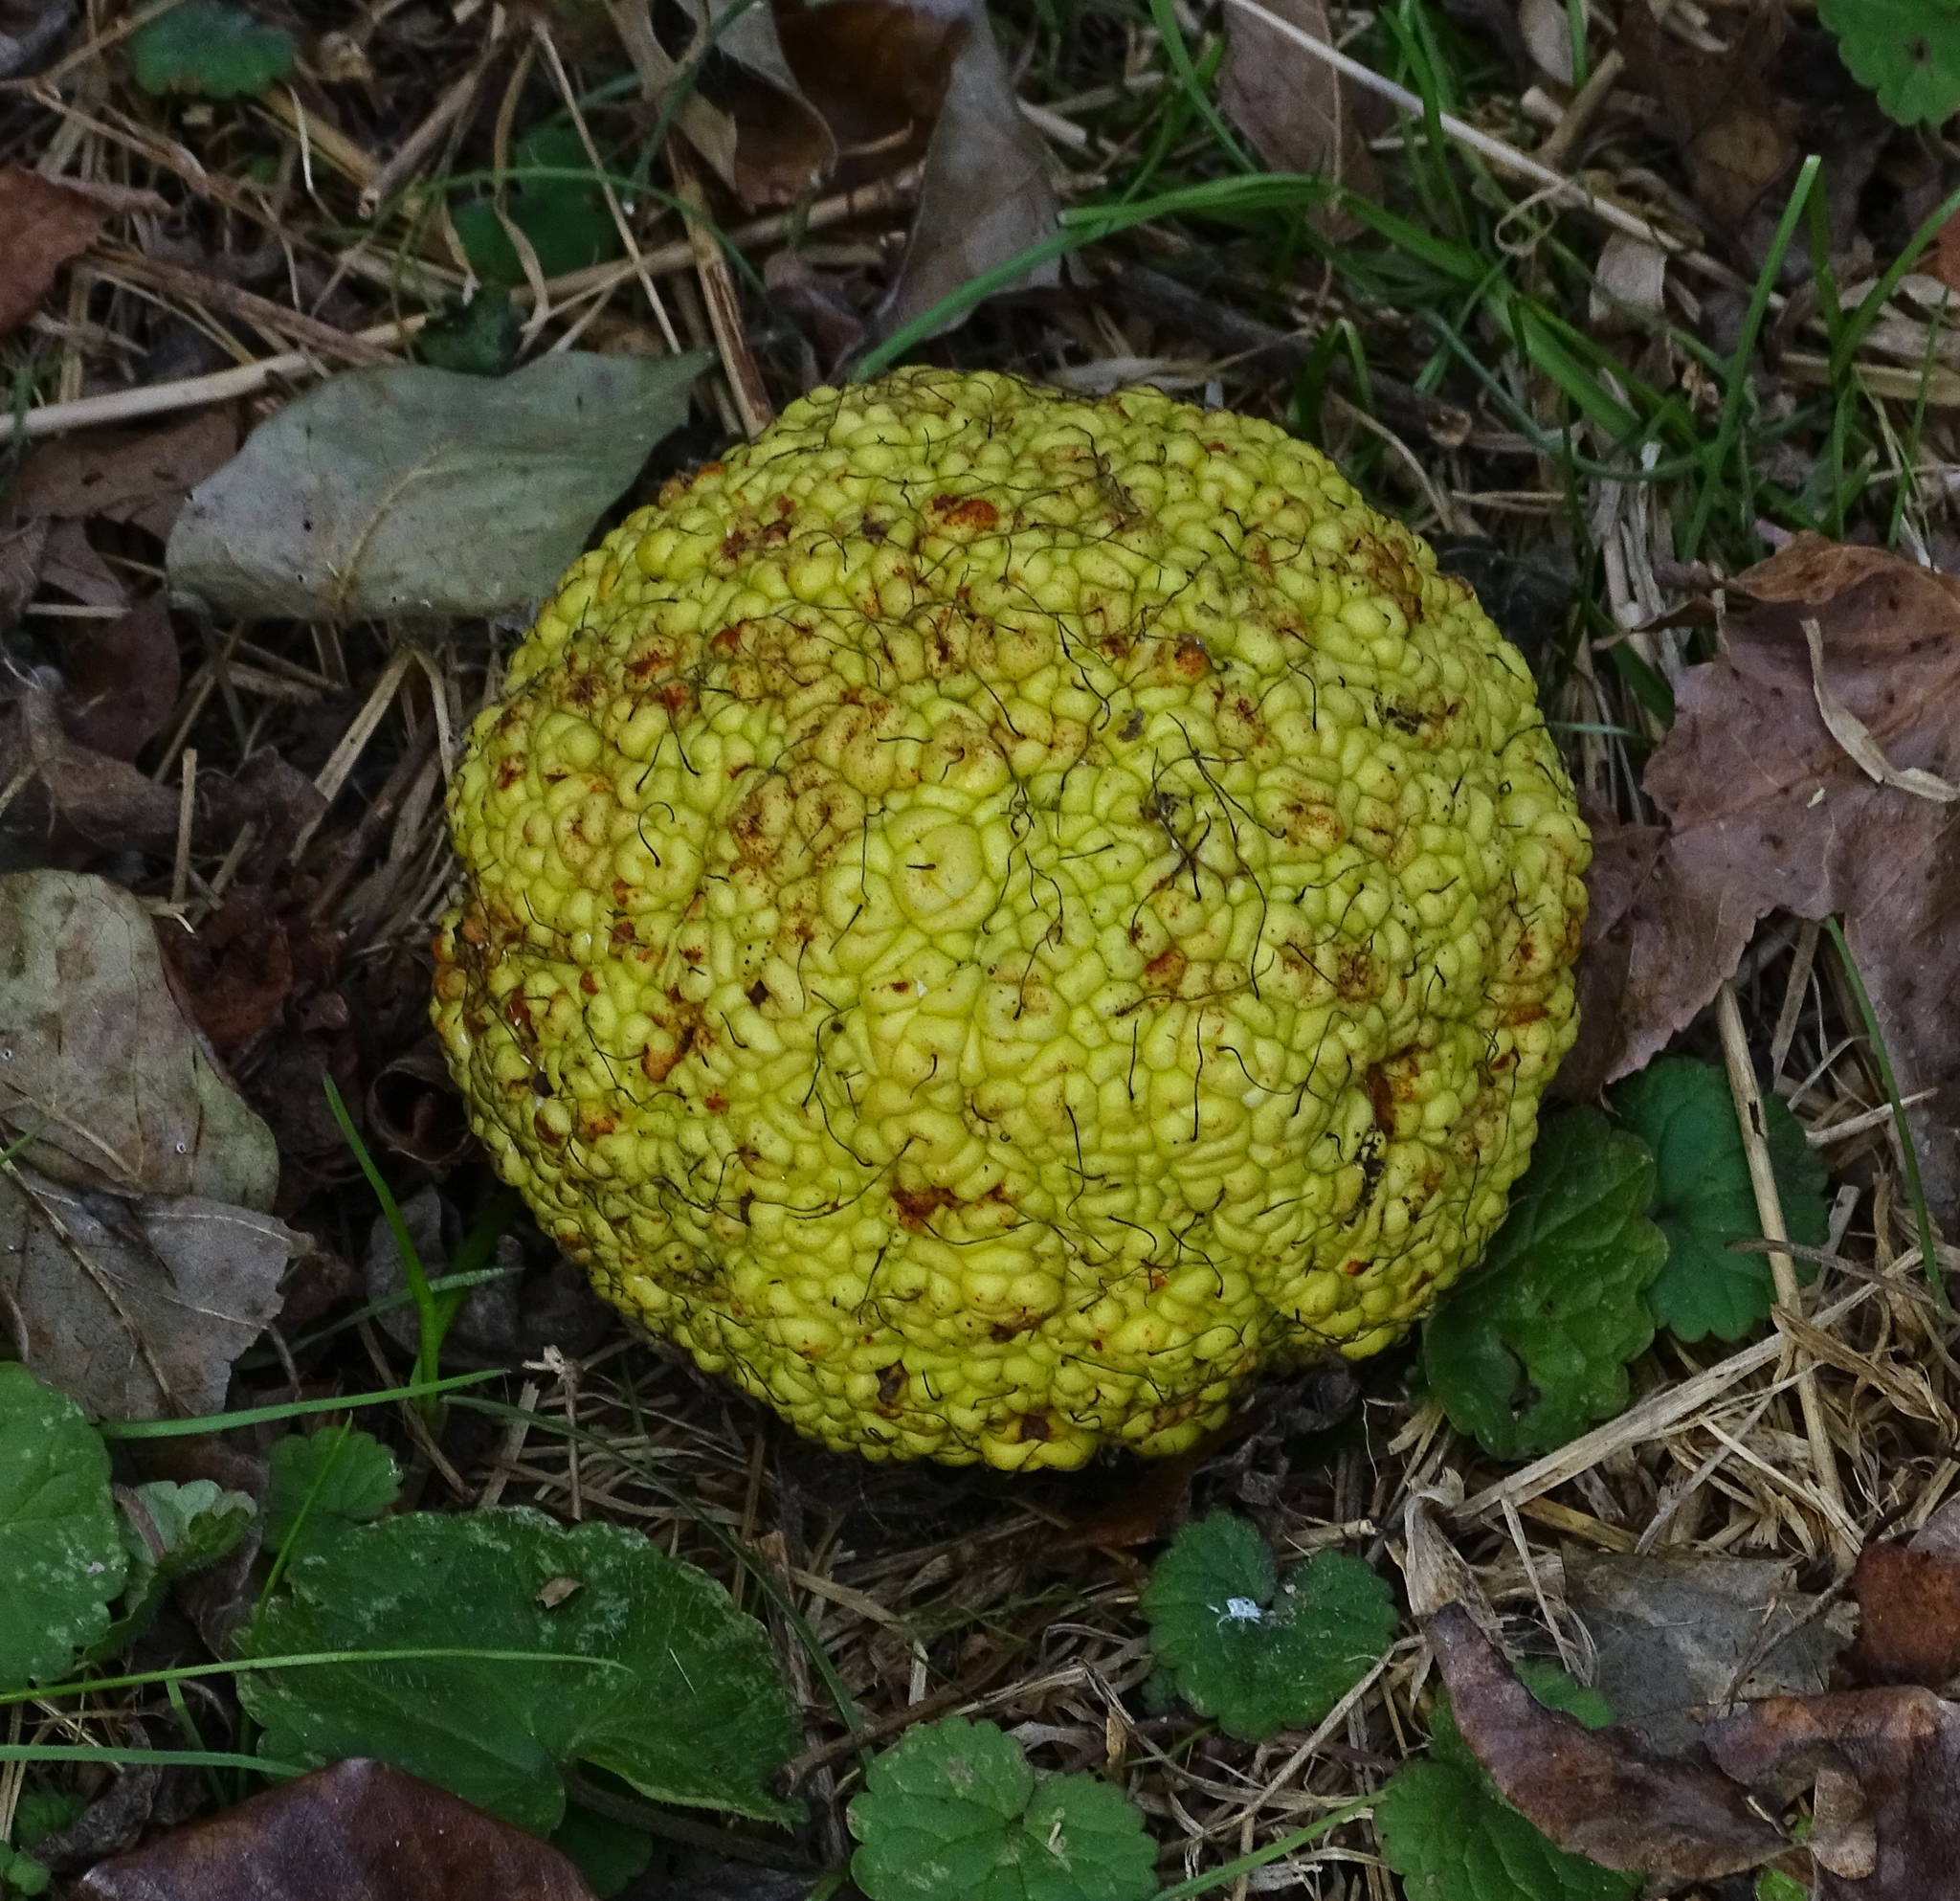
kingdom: Plantae
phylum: Tracheophyta
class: Magnoliopsida
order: Rosales
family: Moraceae
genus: Maclura
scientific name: Maclura pomifera
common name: Osage-orange
